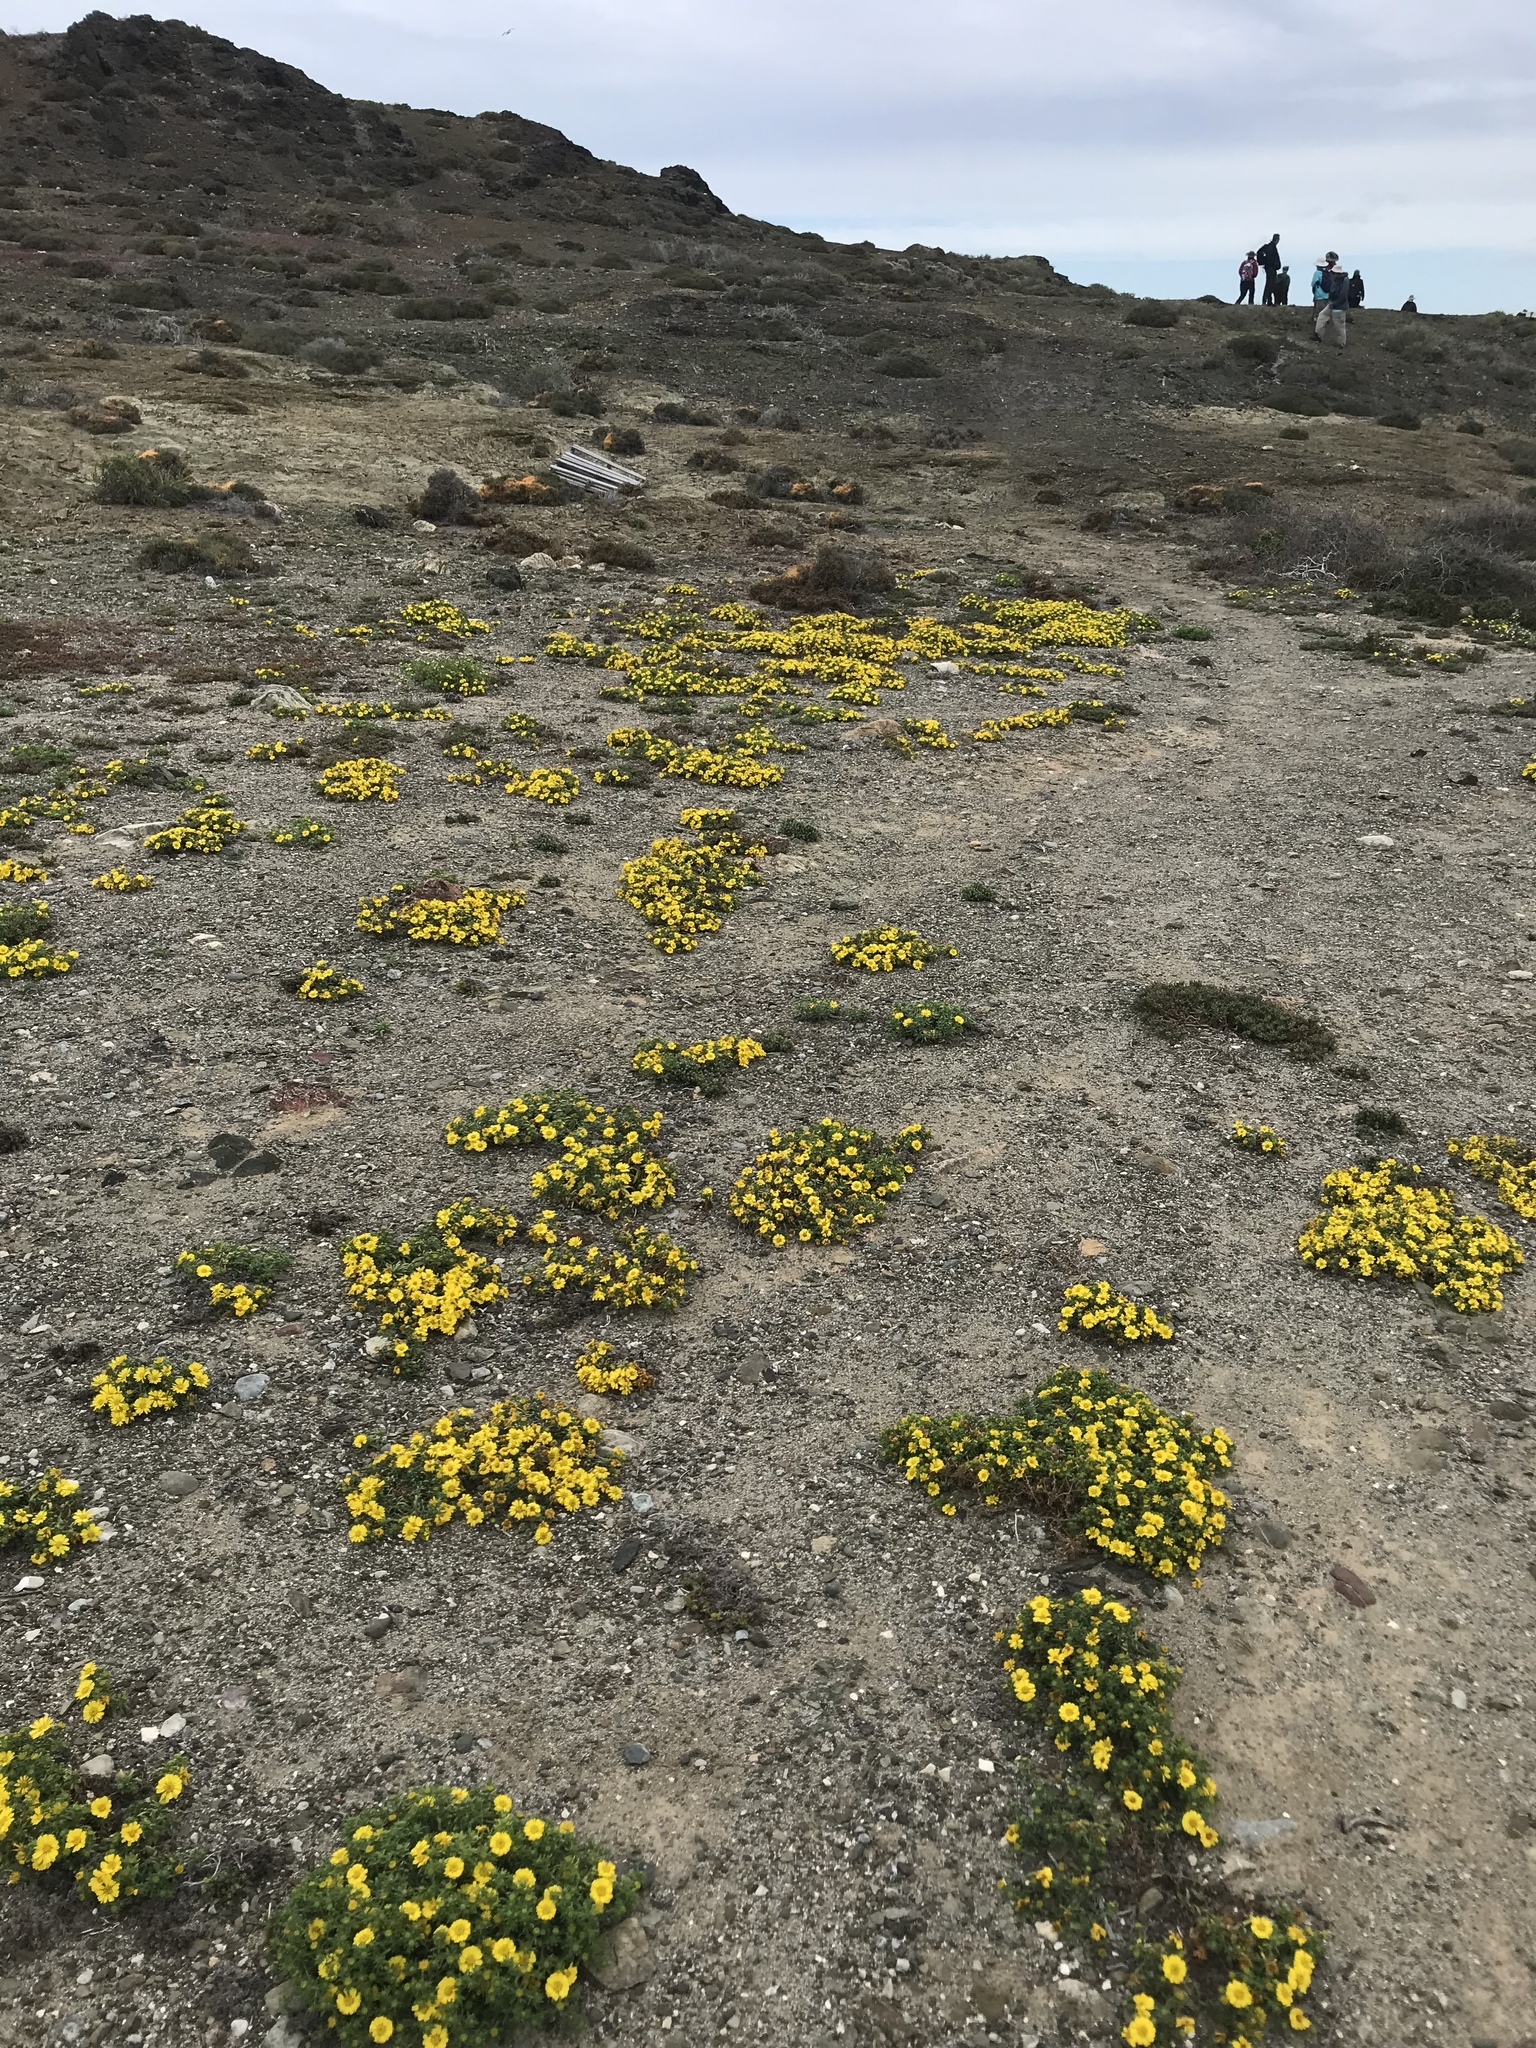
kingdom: Plantae
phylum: Tracheophyta
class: Magnoliopsida
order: Asterales
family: Asteraceae
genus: Deinandra
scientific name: Deinandra streetsii
